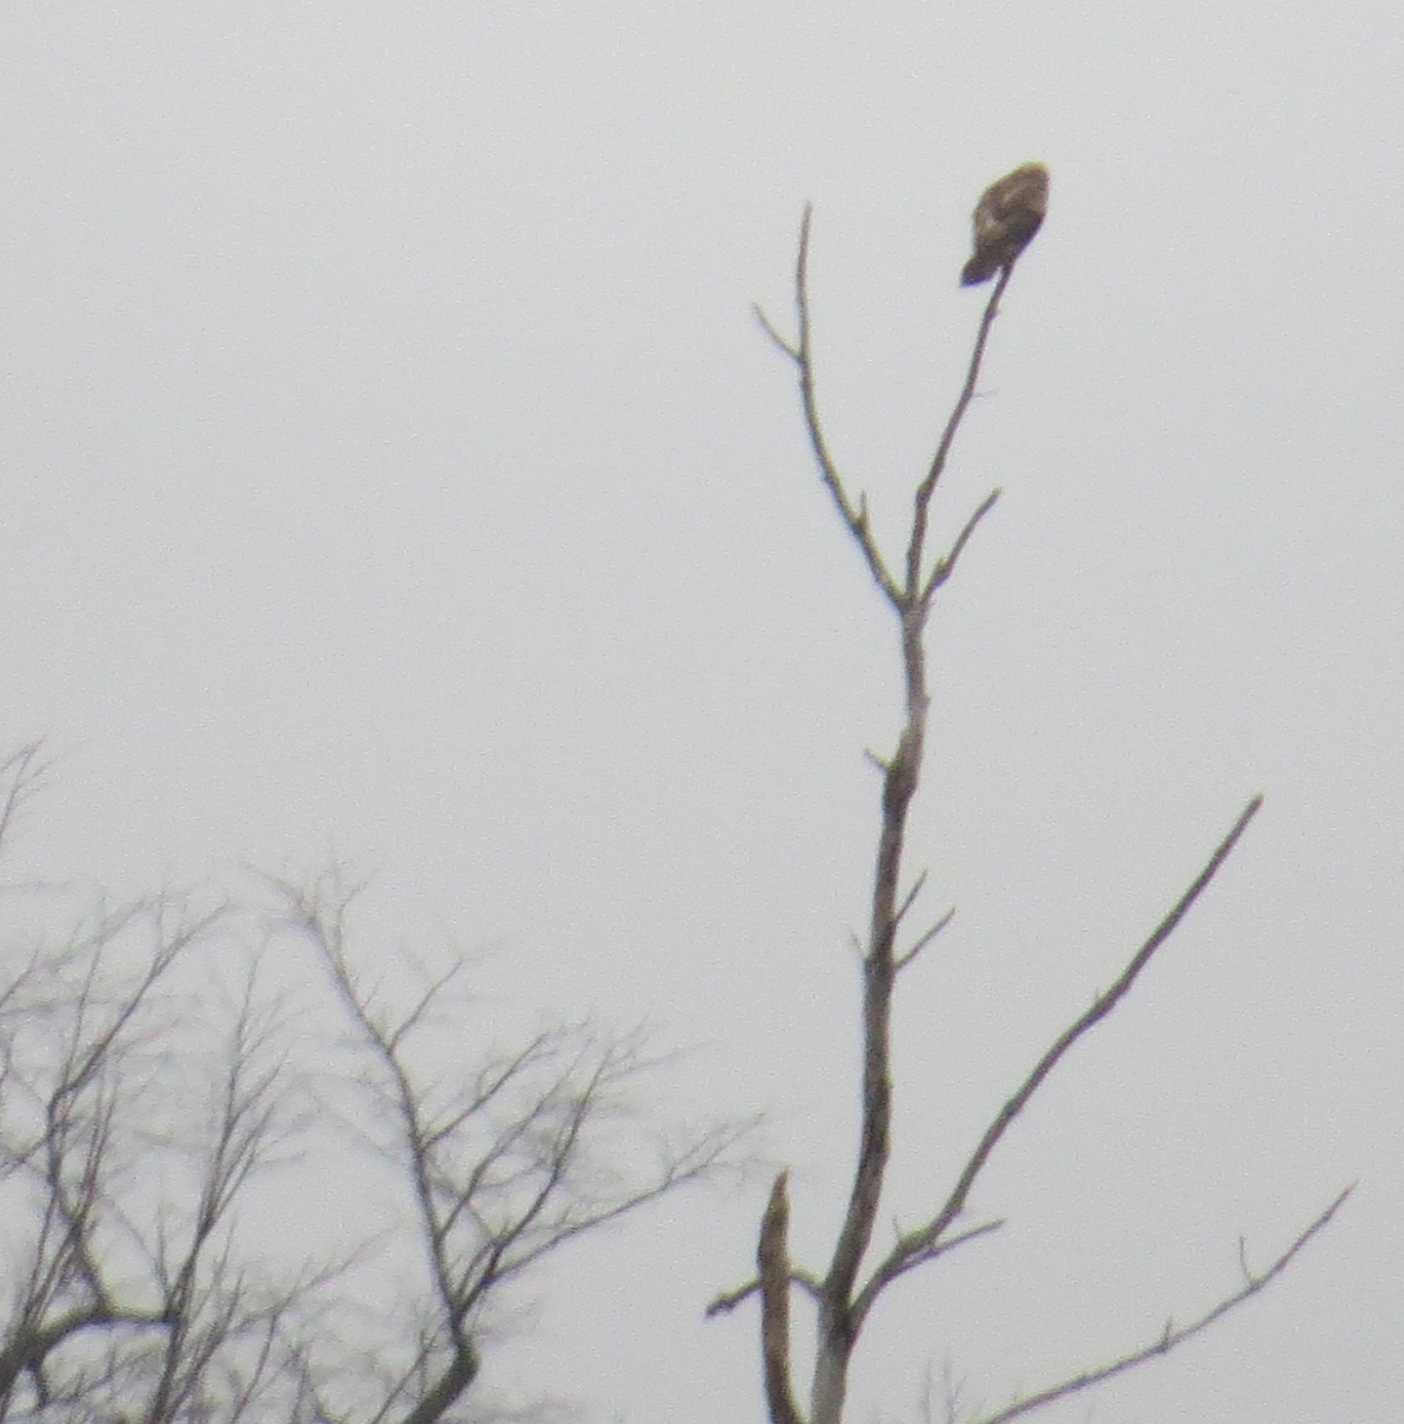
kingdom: Animalia
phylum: Chordata
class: Aves
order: Accipitriformes
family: Accipitridae
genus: Buteo
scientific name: Buteo lagopus
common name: Rough-legged buzzard
